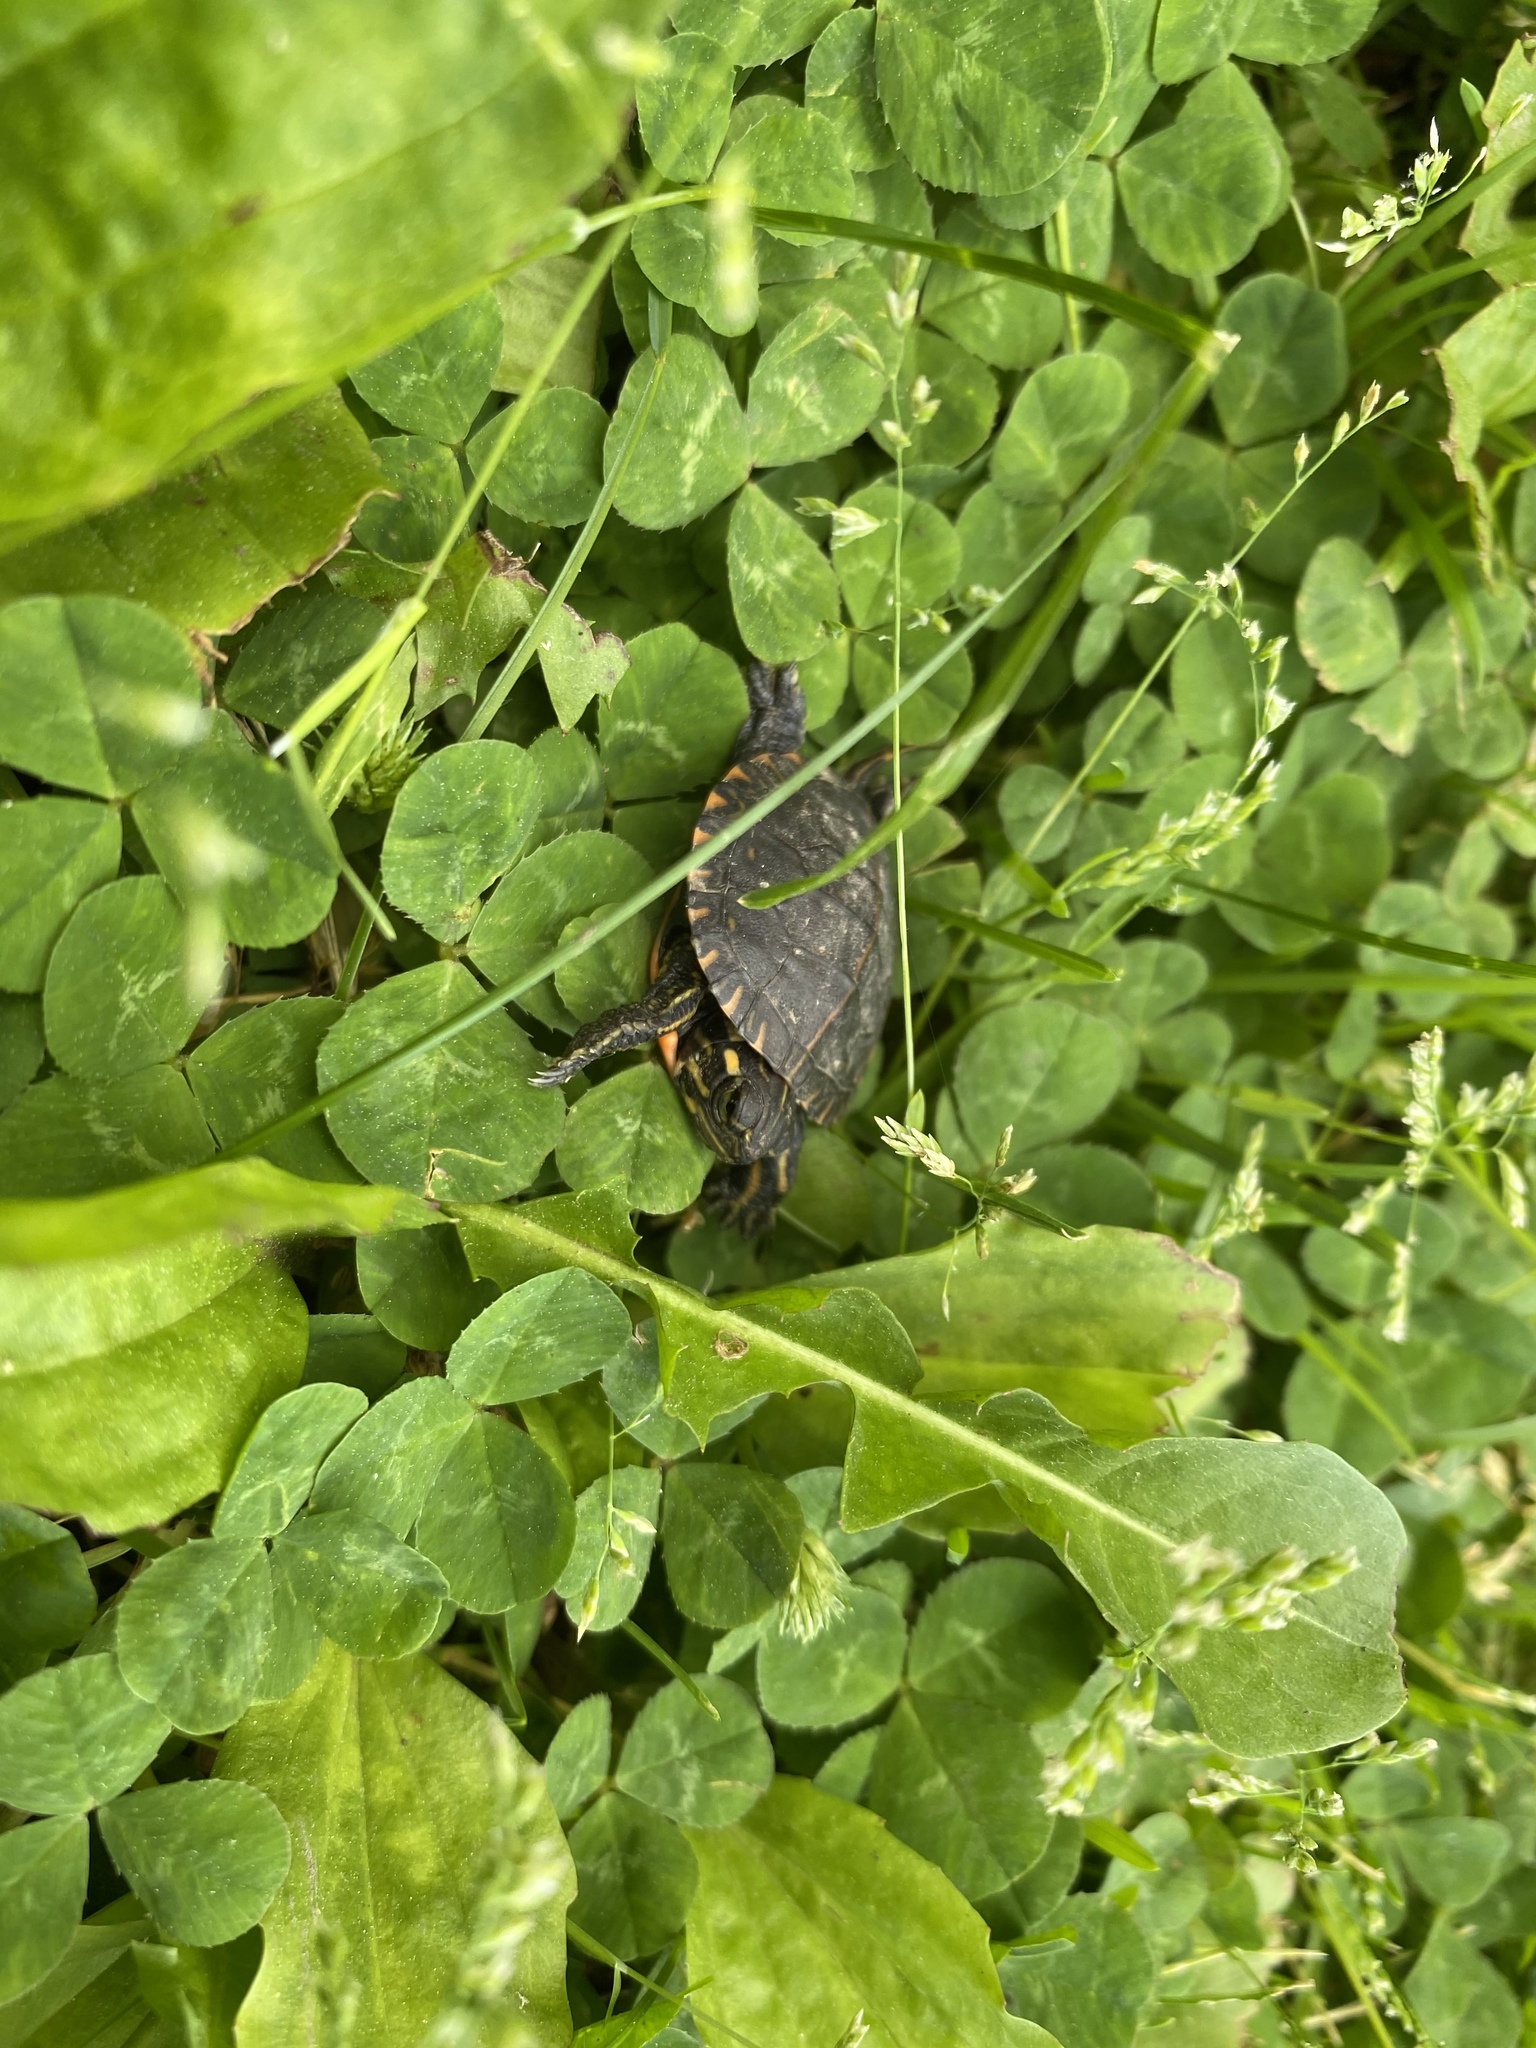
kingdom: Animalia
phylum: Chordata
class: Testudines
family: Emydidae
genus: Chrysemys
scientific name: Chrysemys picta
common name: Painted turtle
